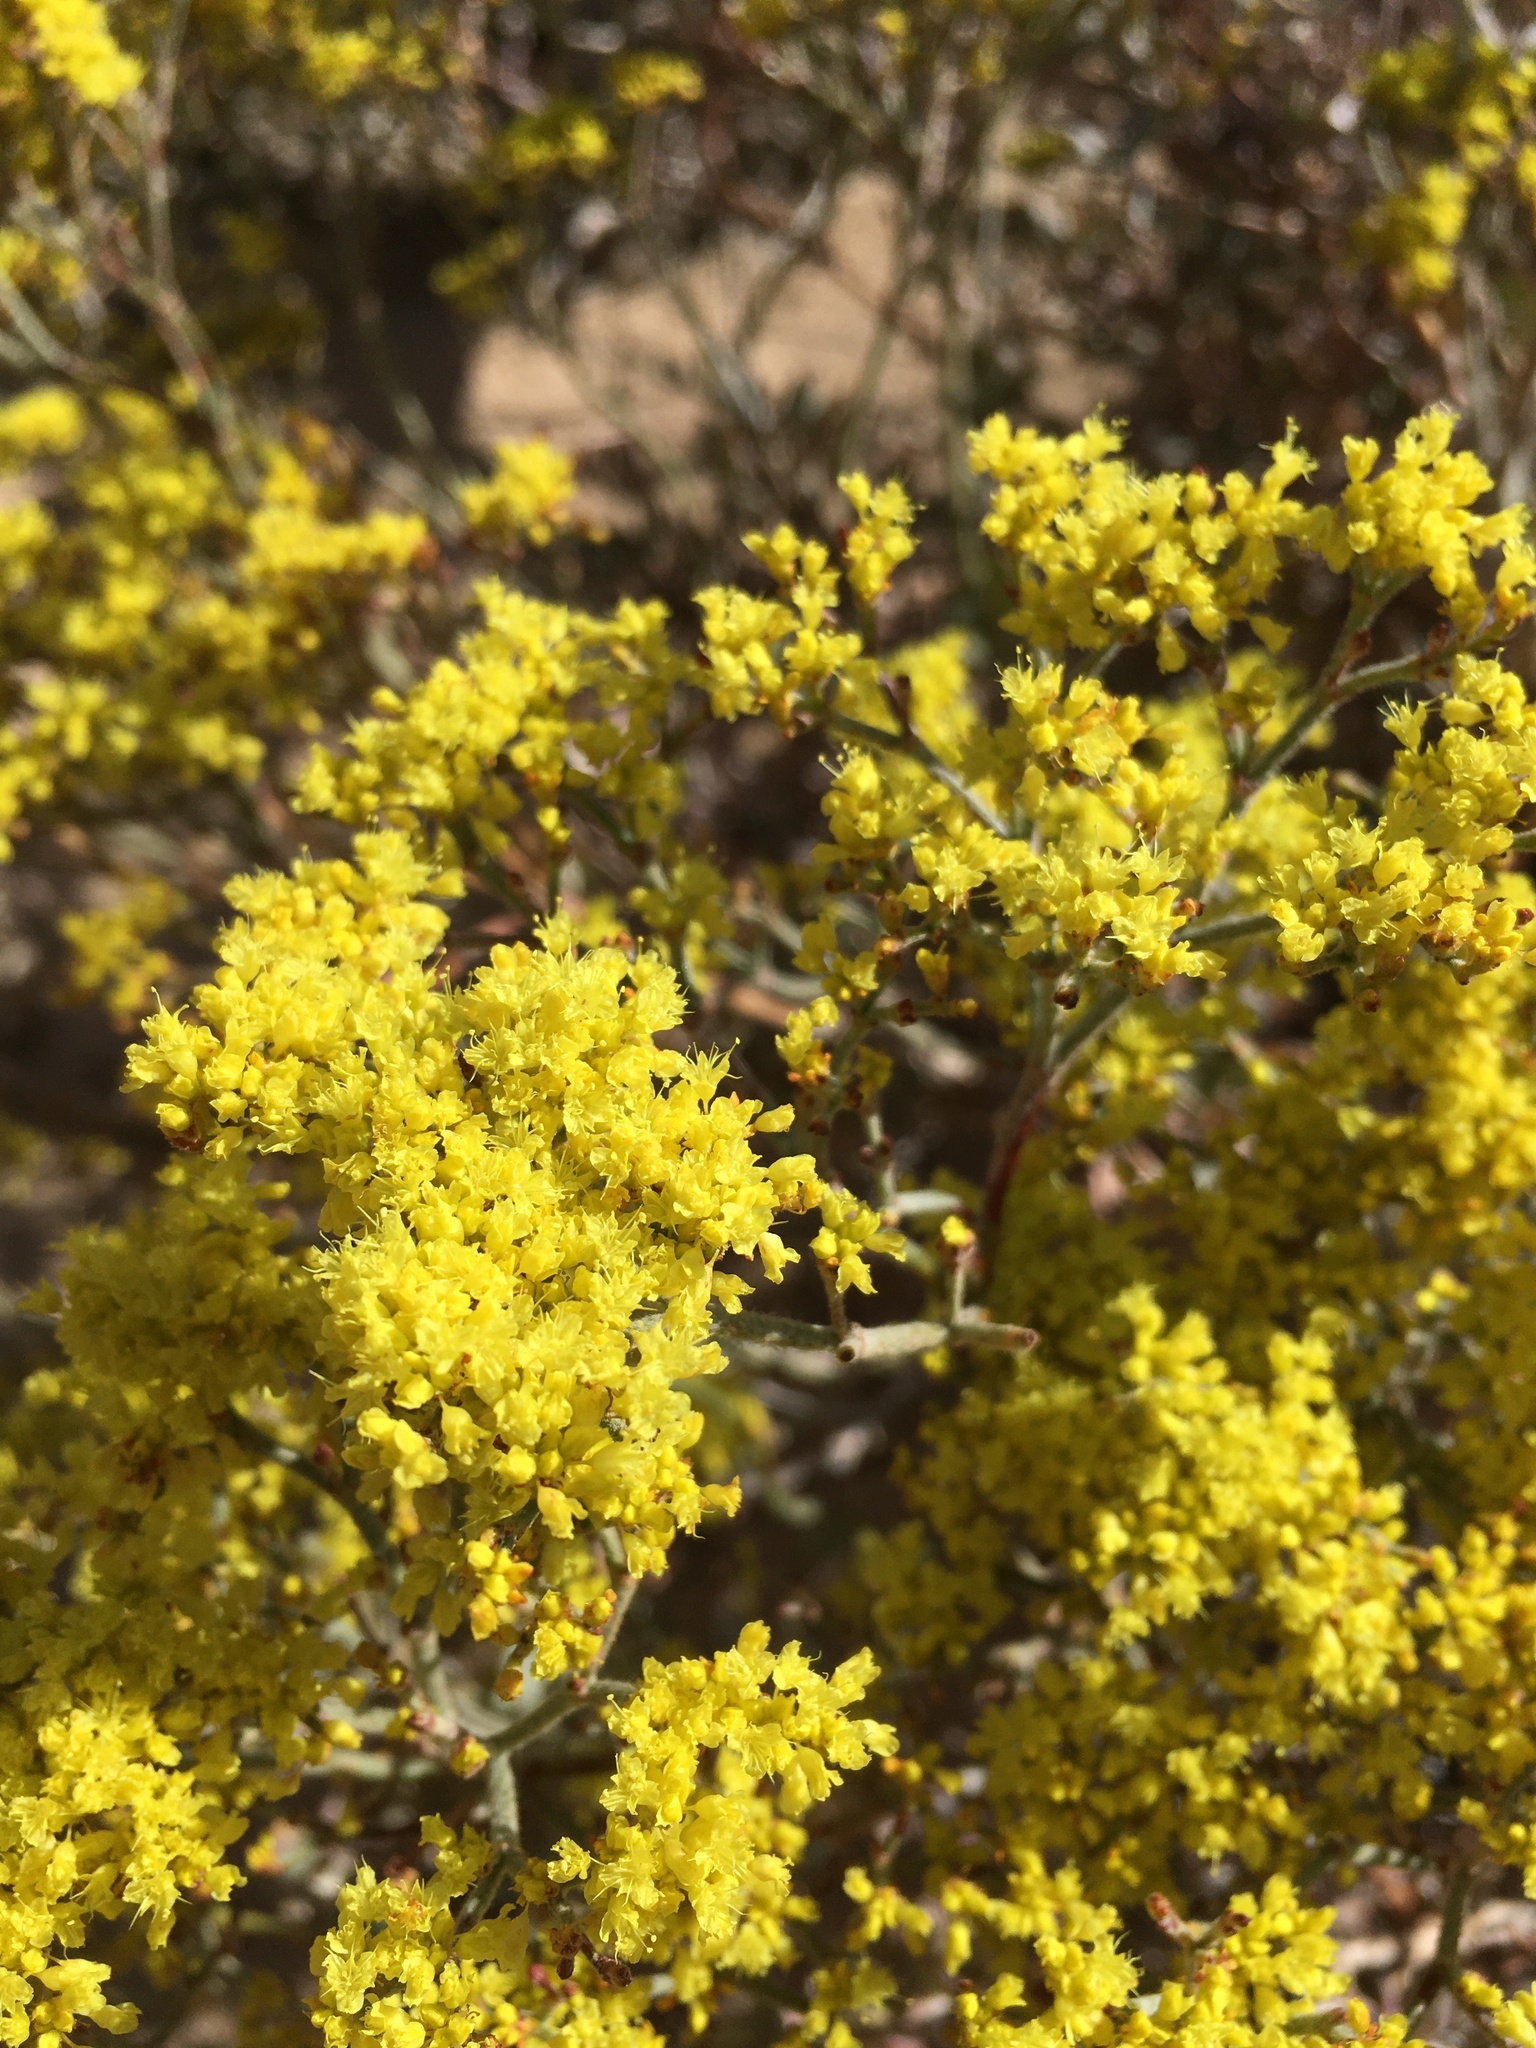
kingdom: Plantae
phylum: Tracheophyta
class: Magnoliopsida
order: Caryophyllales
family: Polygonaceae
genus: Eriogonum
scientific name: Eriogonum microtheca
